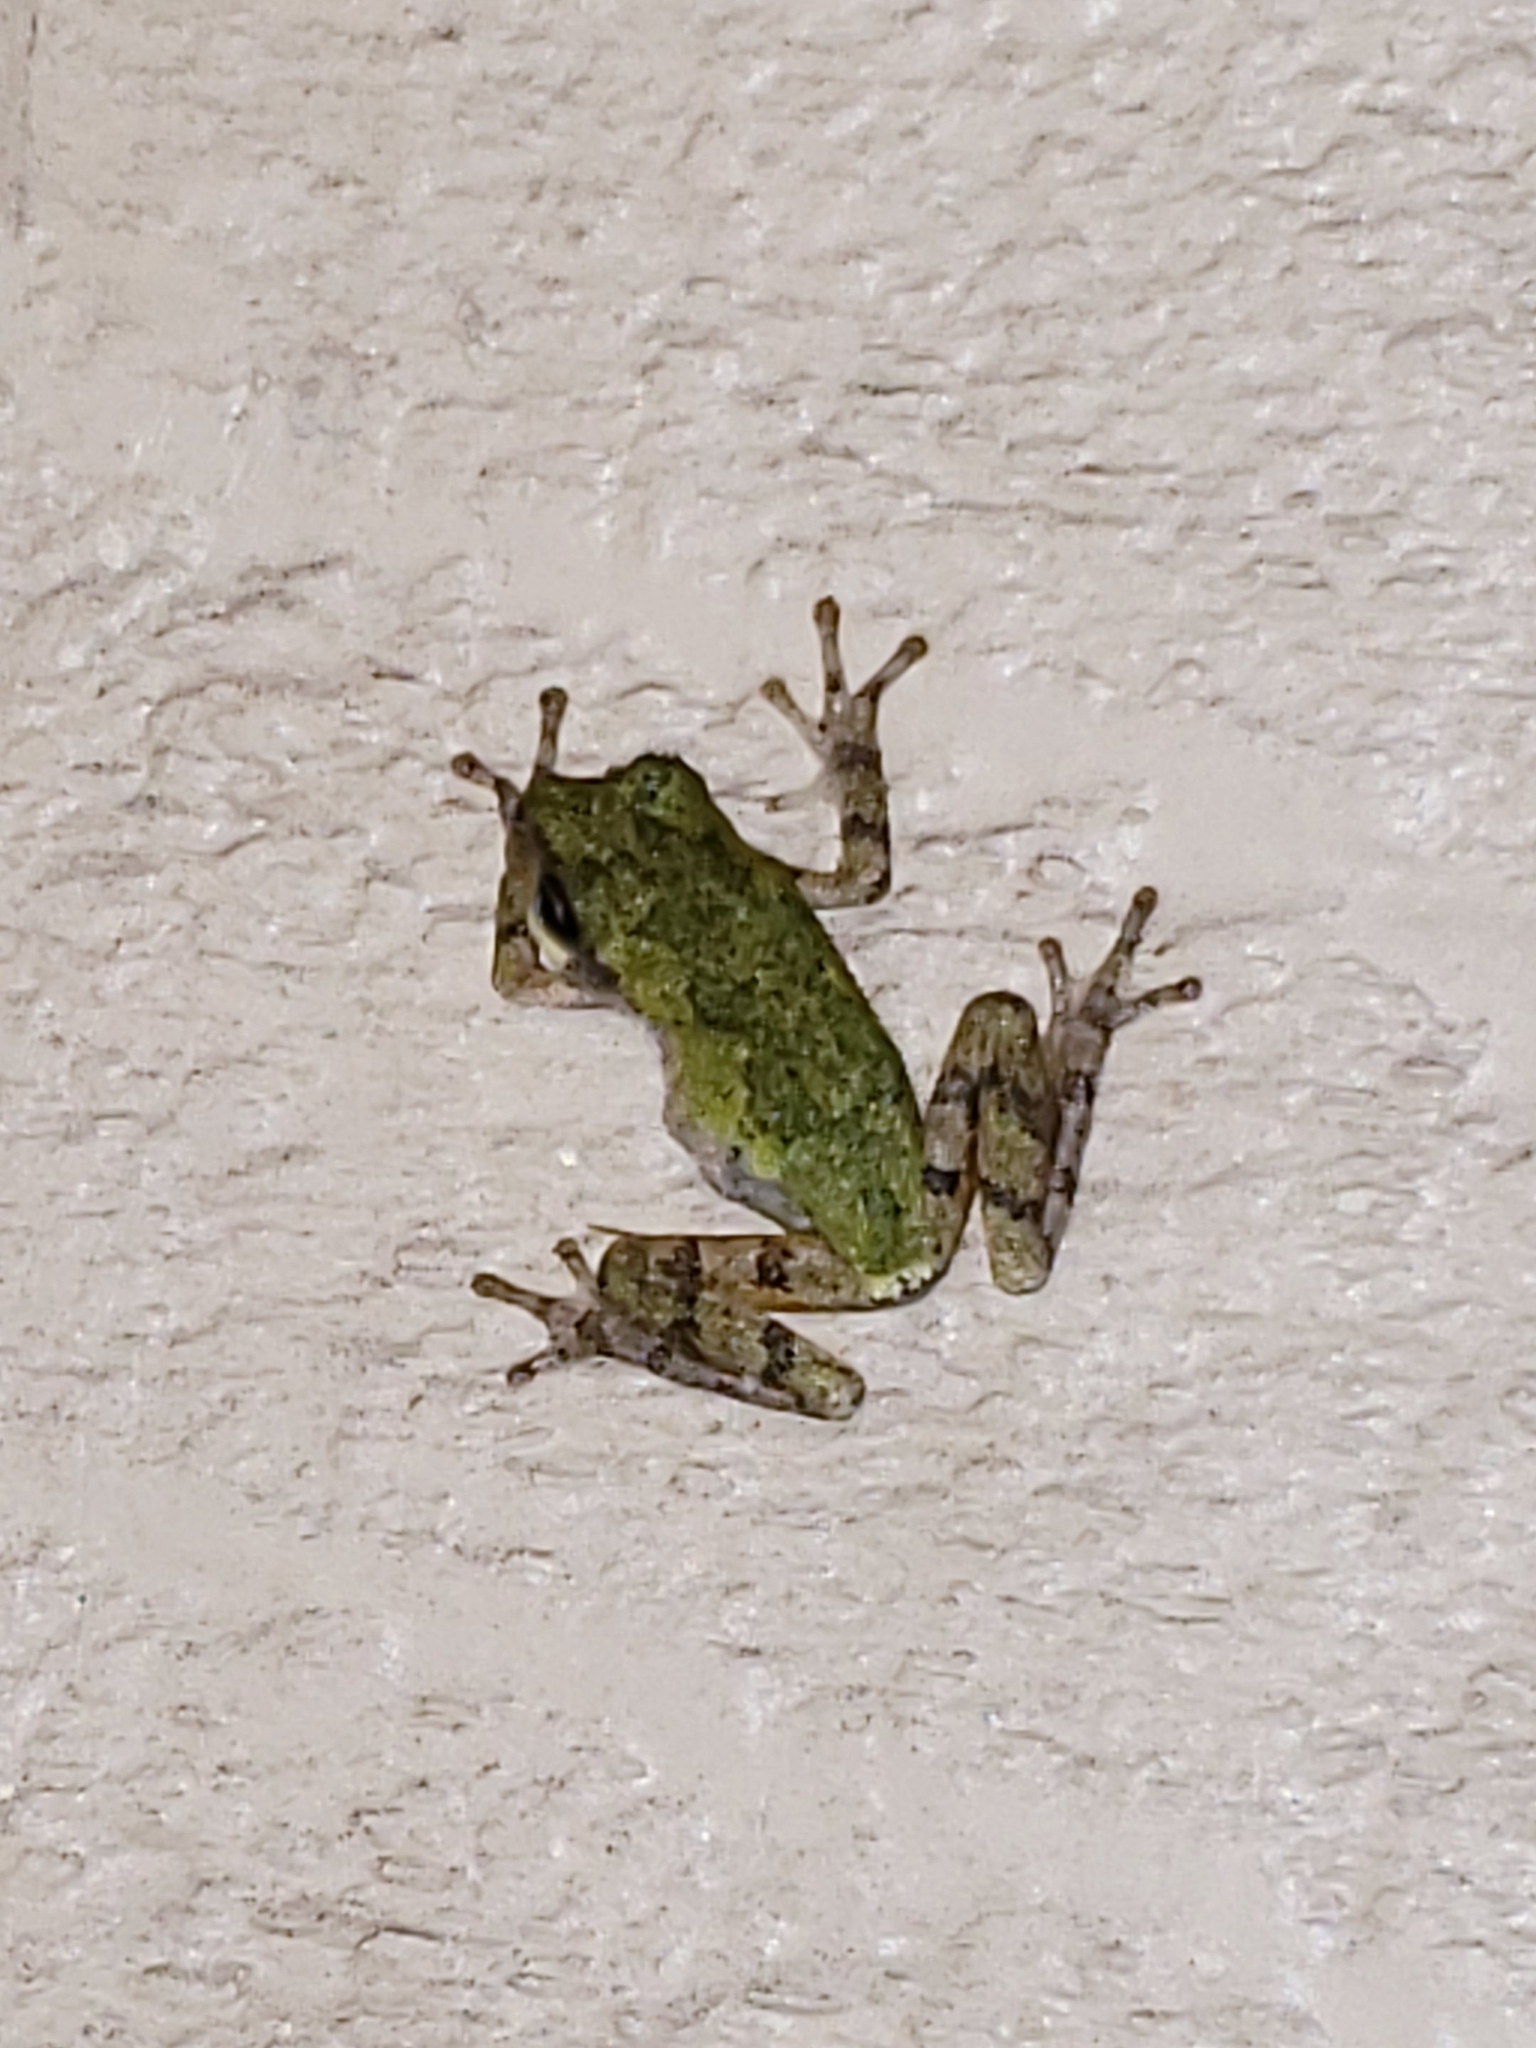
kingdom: Animalia
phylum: Chordata
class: Amphibia
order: Anura
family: Hylidae
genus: Hyla
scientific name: Hyla
